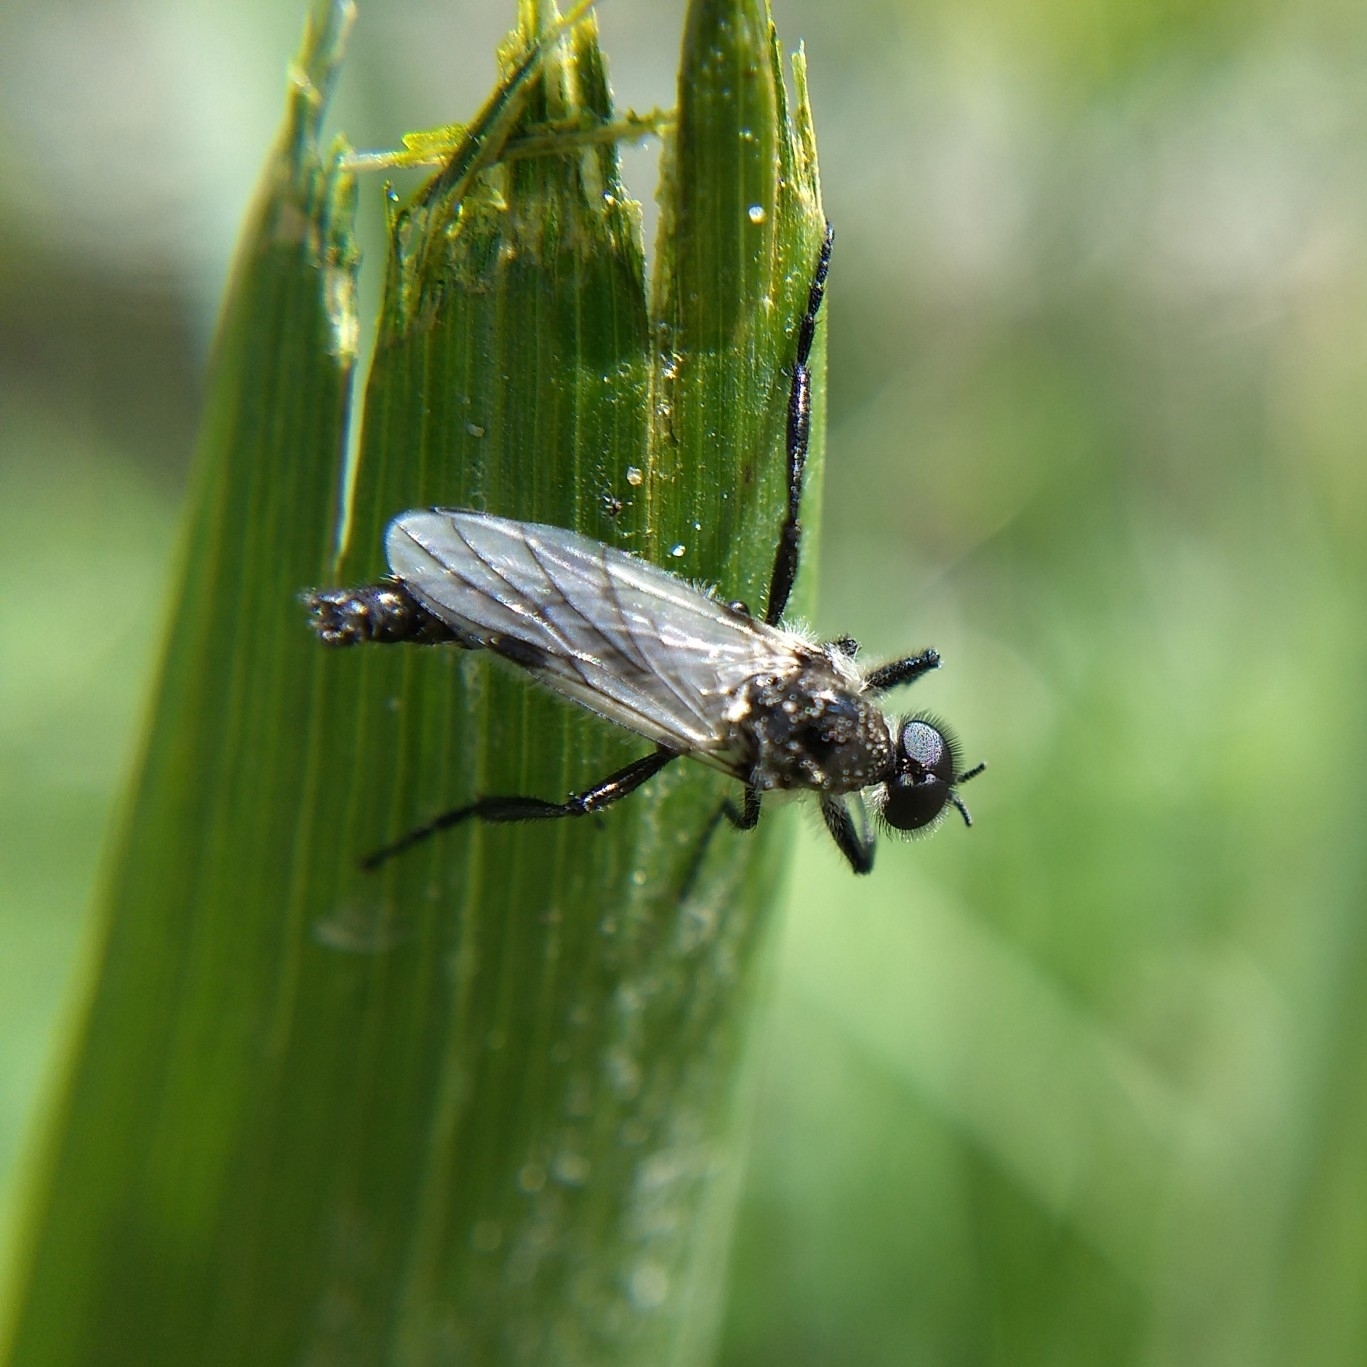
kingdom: Animalia
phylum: Arthropoda
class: Insecta
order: Diptera
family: Bibionidae
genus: Bibio
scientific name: Bibio albipennis
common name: White-winged march fly
